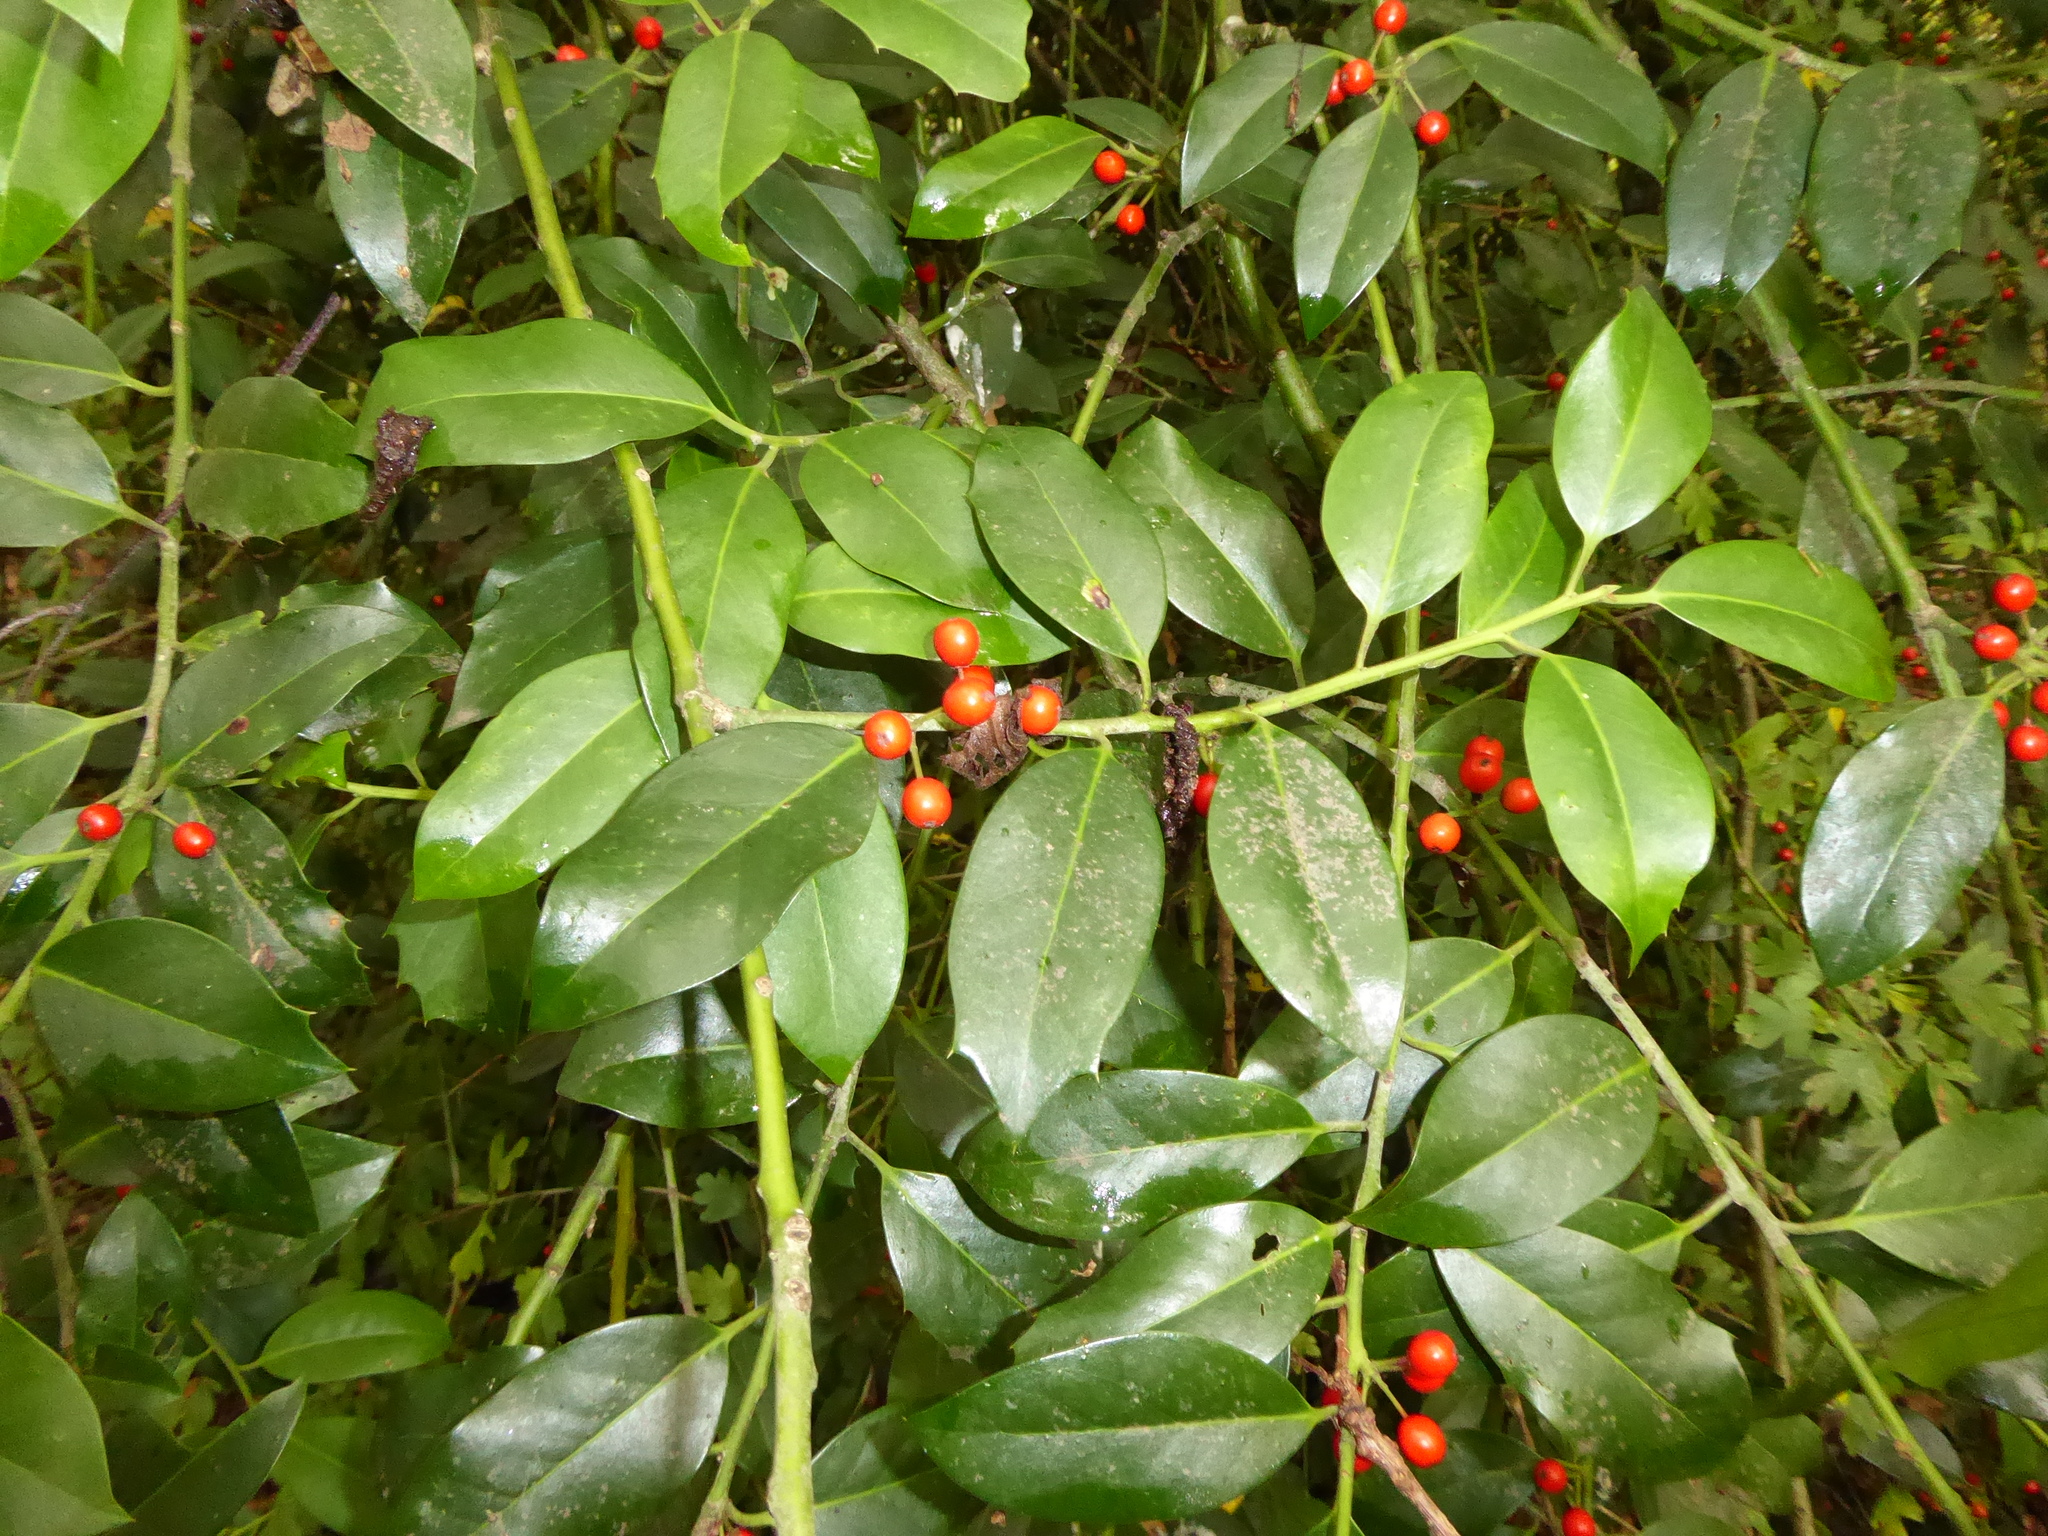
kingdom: Plantae
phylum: Tracheophyta
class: Magnoliopsida
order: Aquifoliales
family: Aquifoliaceae
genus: Ilex
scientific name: Ilex aquifolium
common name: English holly
